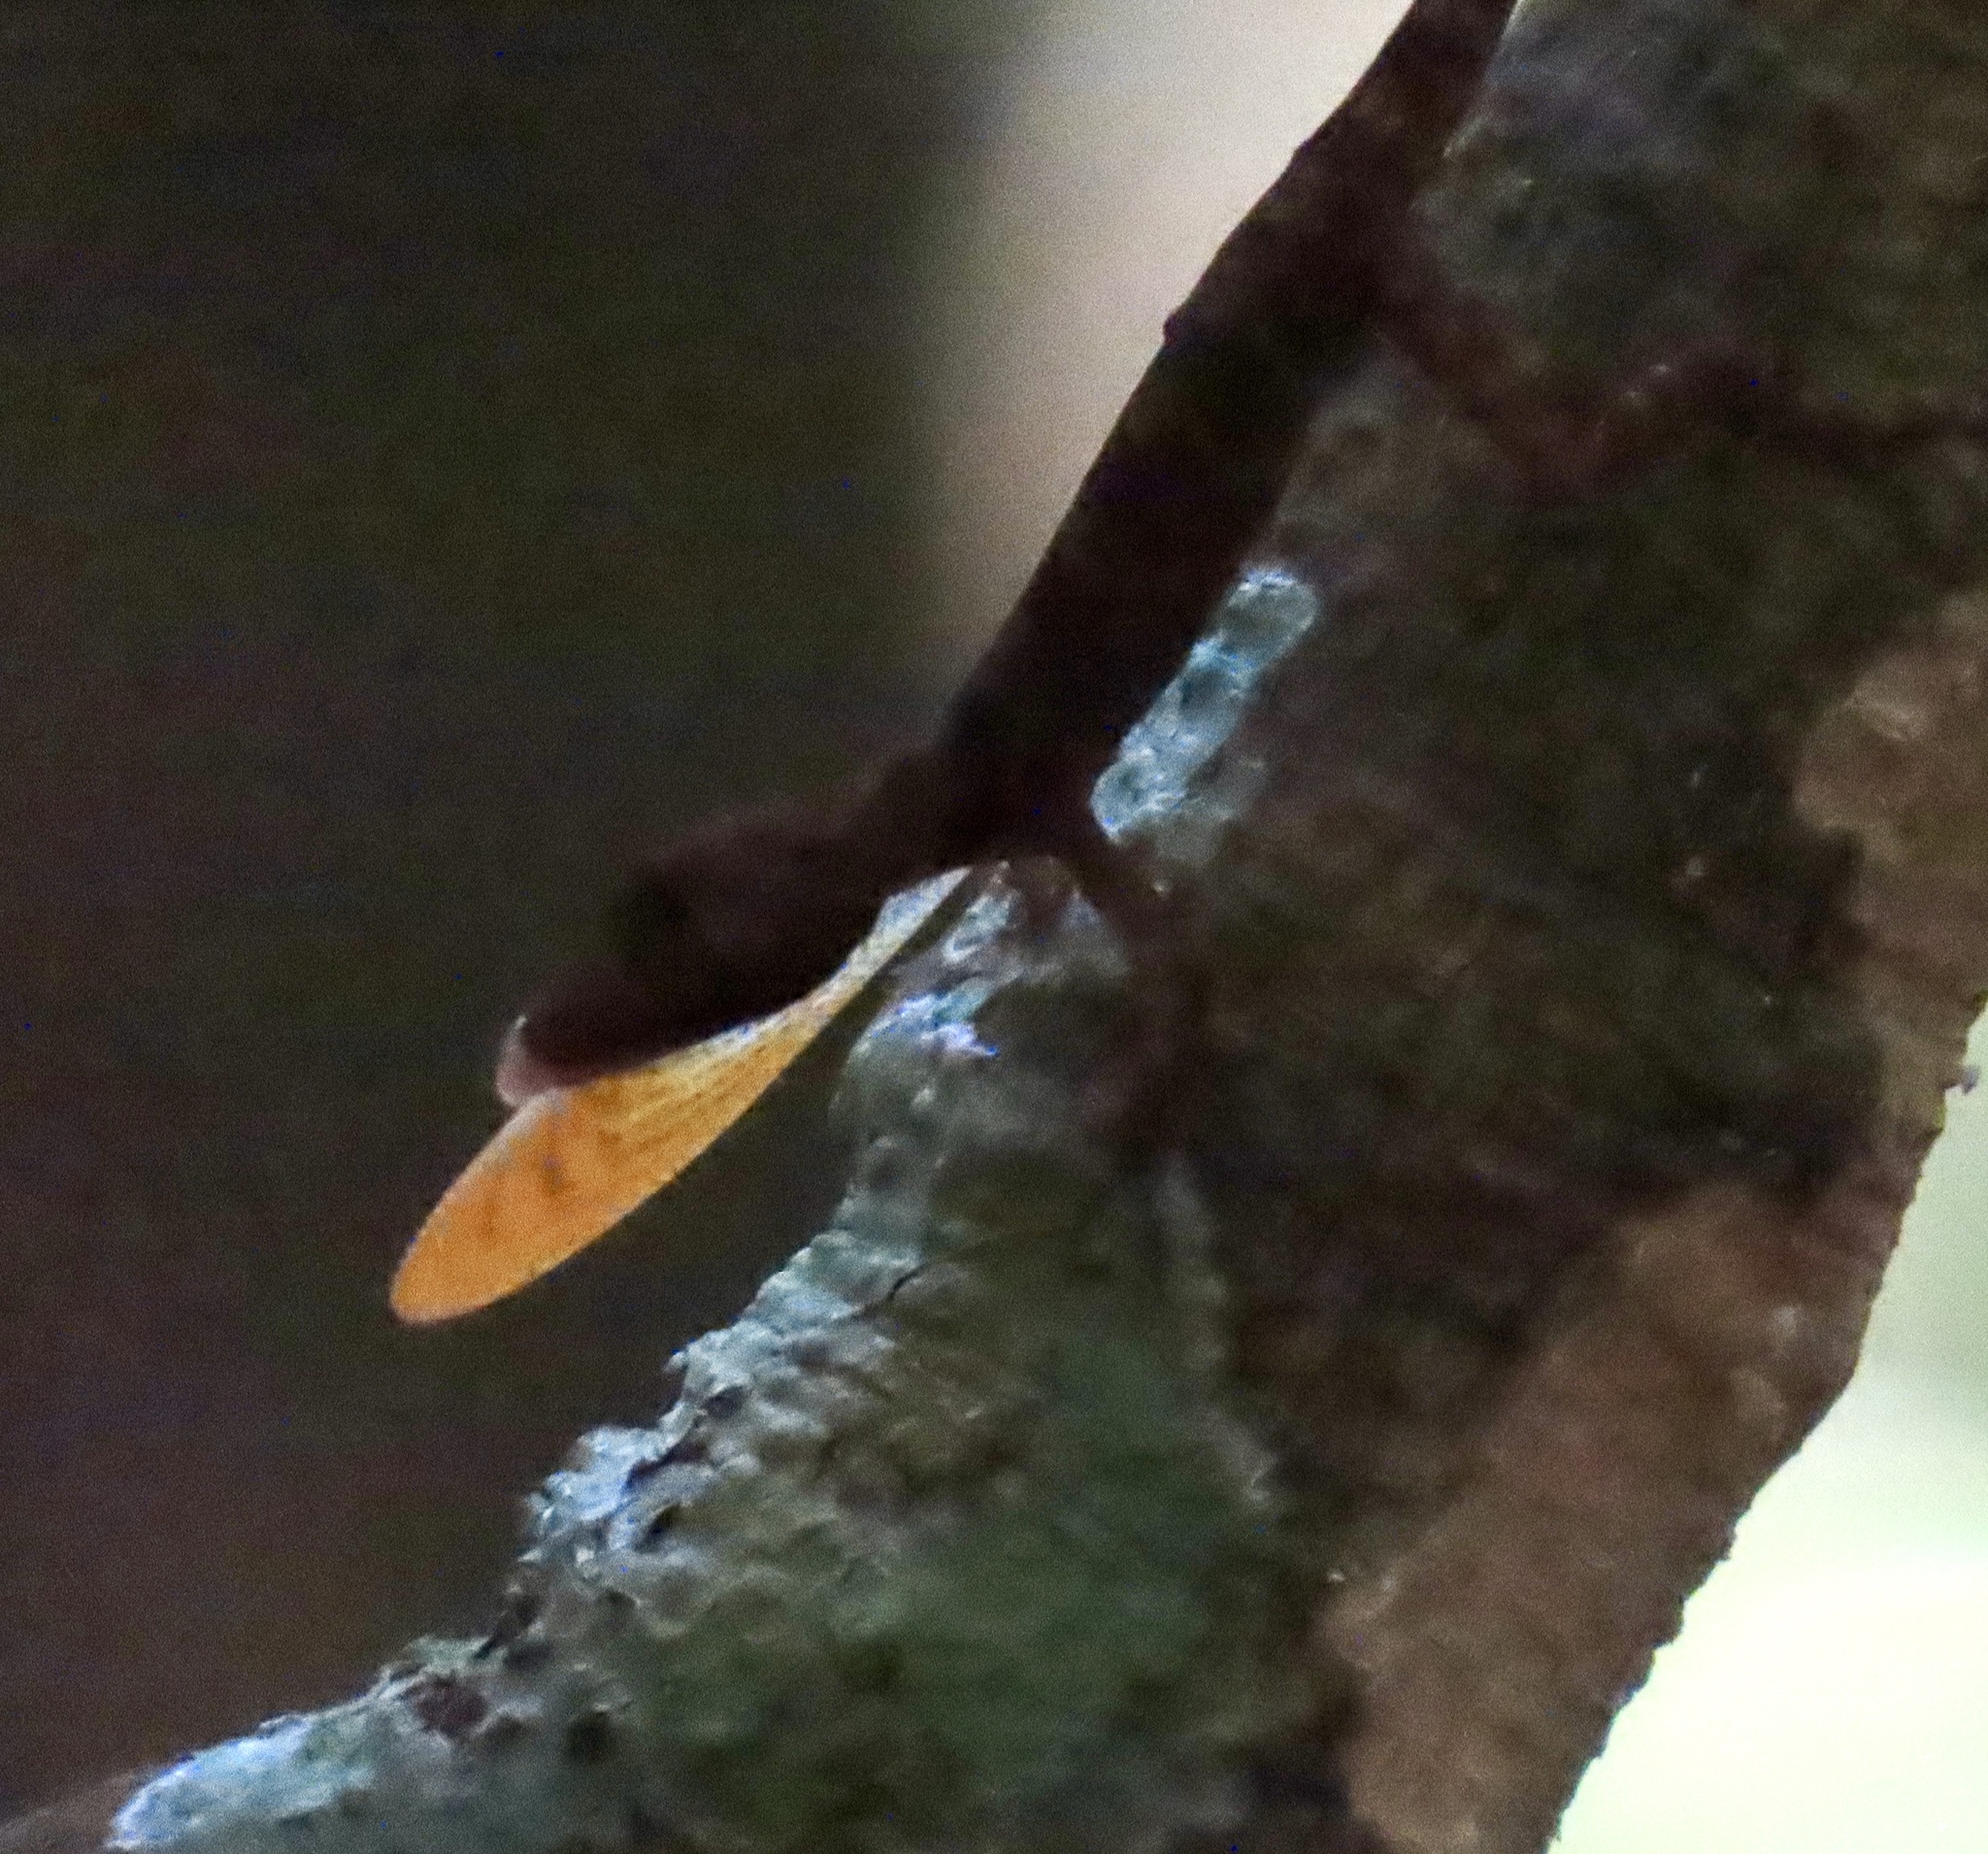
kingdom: Animalia
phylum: Chordata
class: Squamata
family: Dactyloidae
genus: Anolis
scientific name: Anolis gaigei
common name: Gaige’s anole
